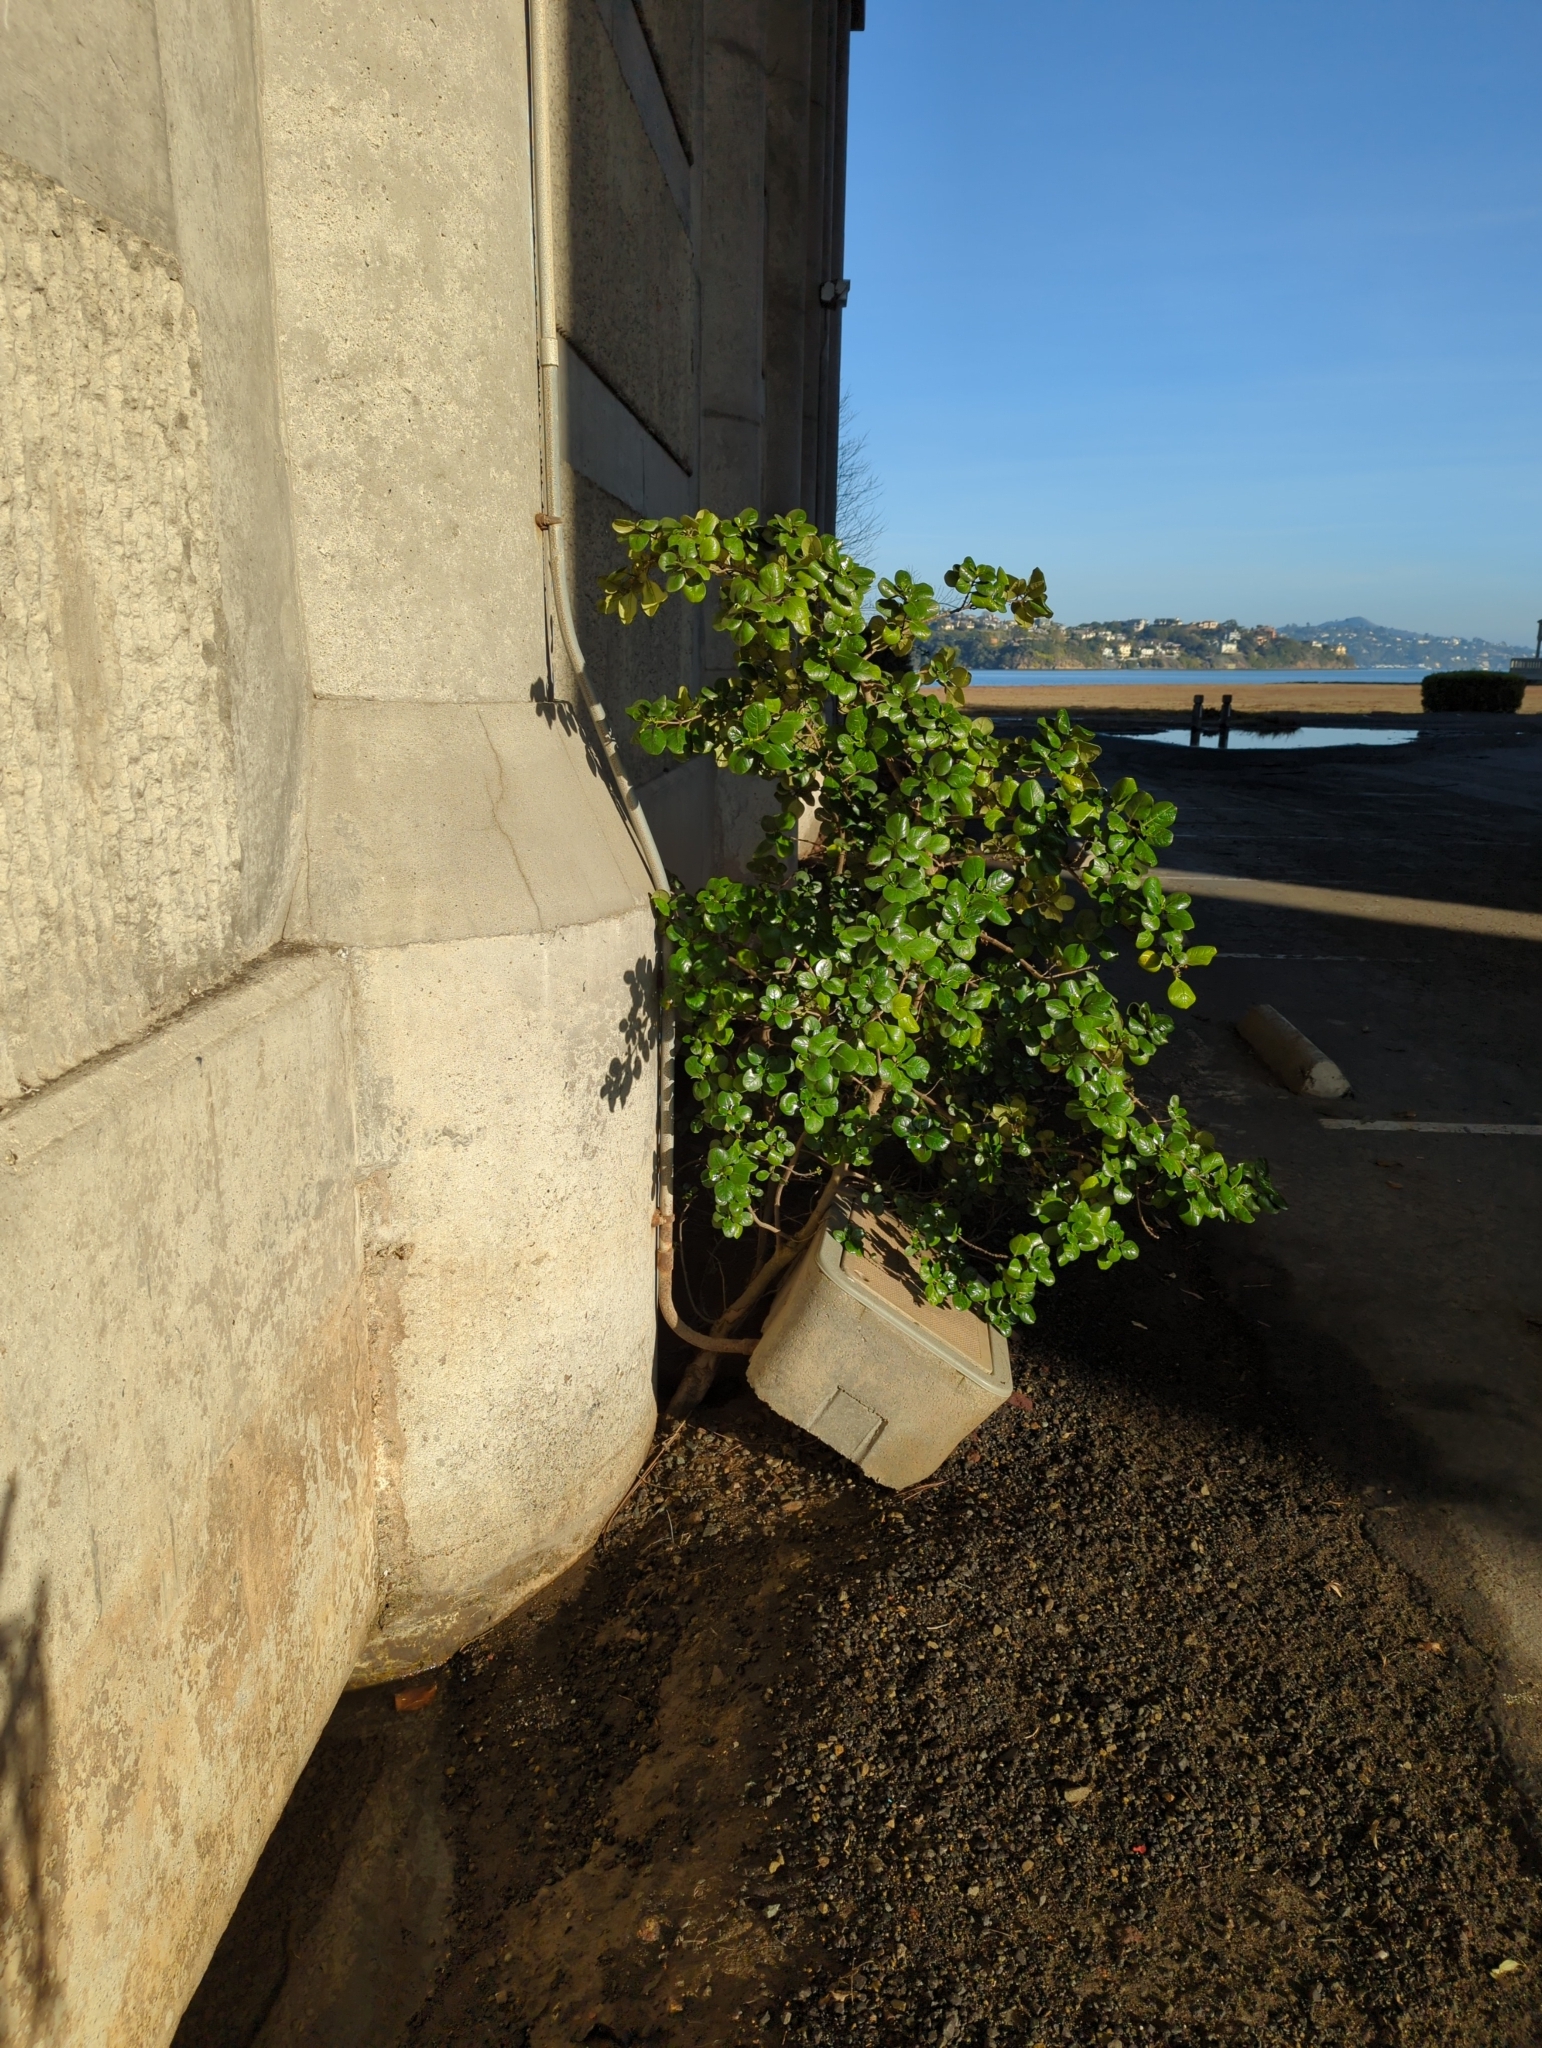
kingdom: Plantae
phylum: Tracheophyta
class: Magnoliopsida
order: Gentianales
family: Rubiaceae
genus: Coprosma
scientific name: Coprosma repens
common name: Tree bedstraw
